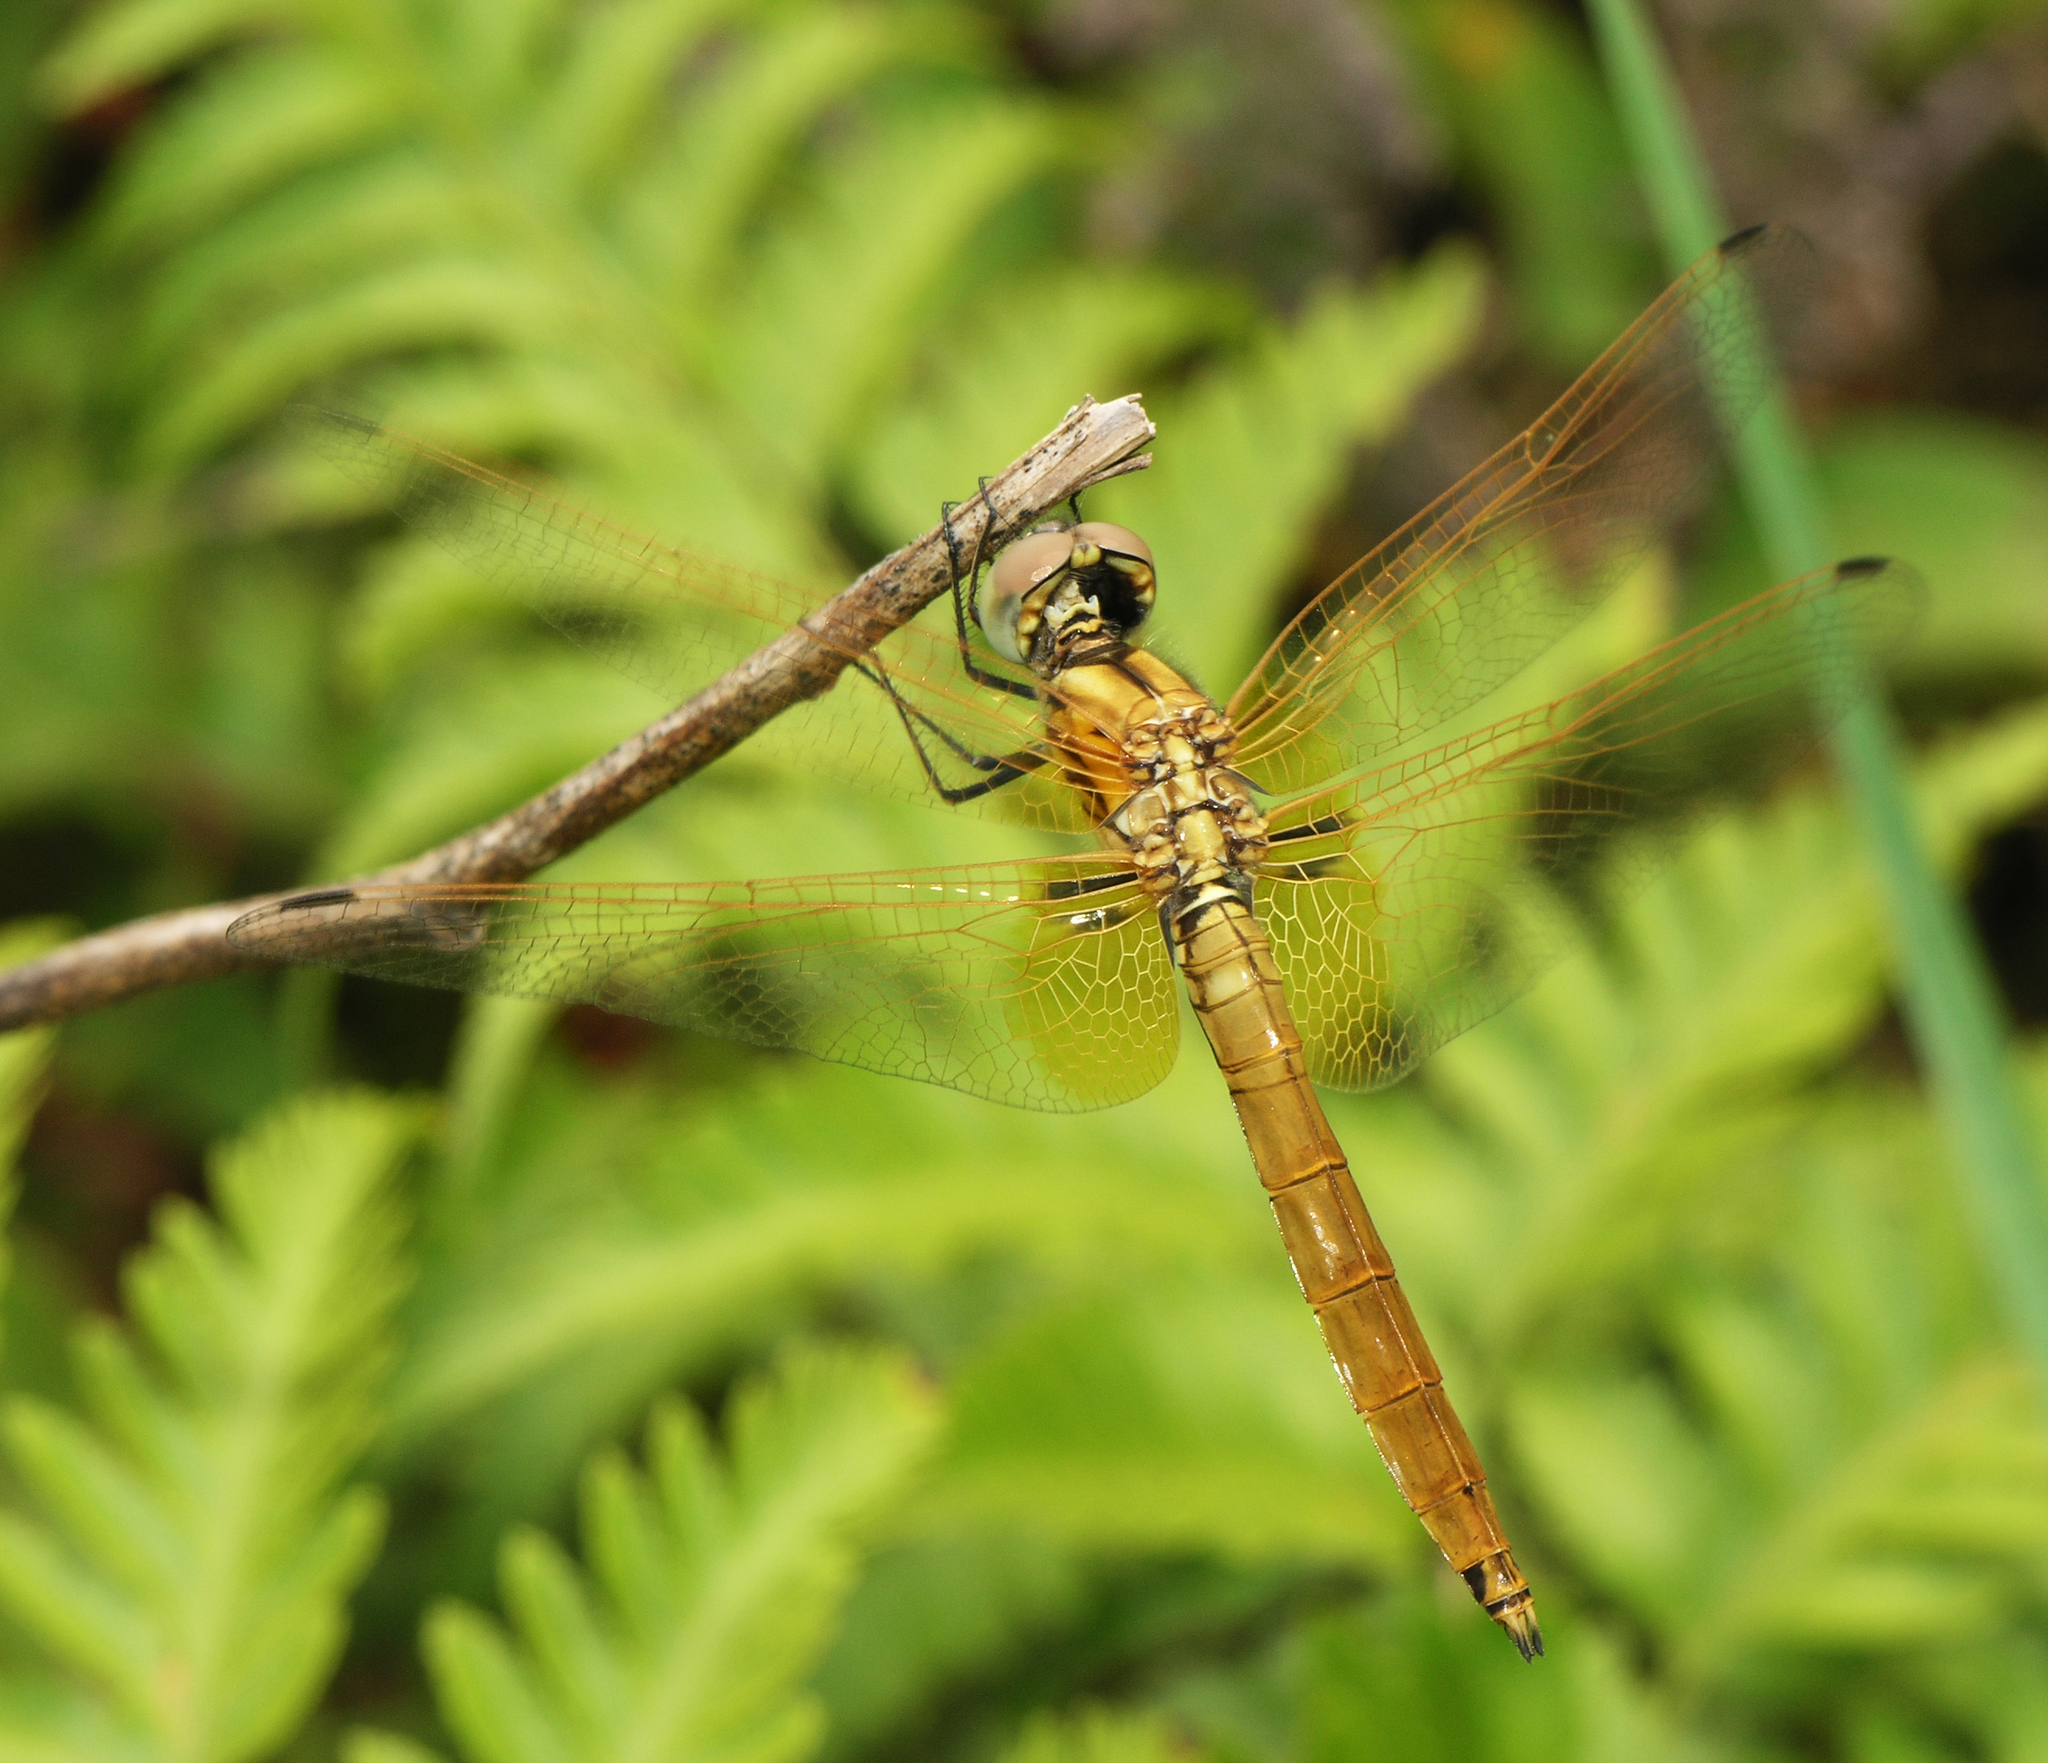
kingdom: Animalia
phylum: Arthropoda
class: Insecta
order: Odonata
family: Libellulidae
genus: Trithemis
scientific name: Trithemis aurora
